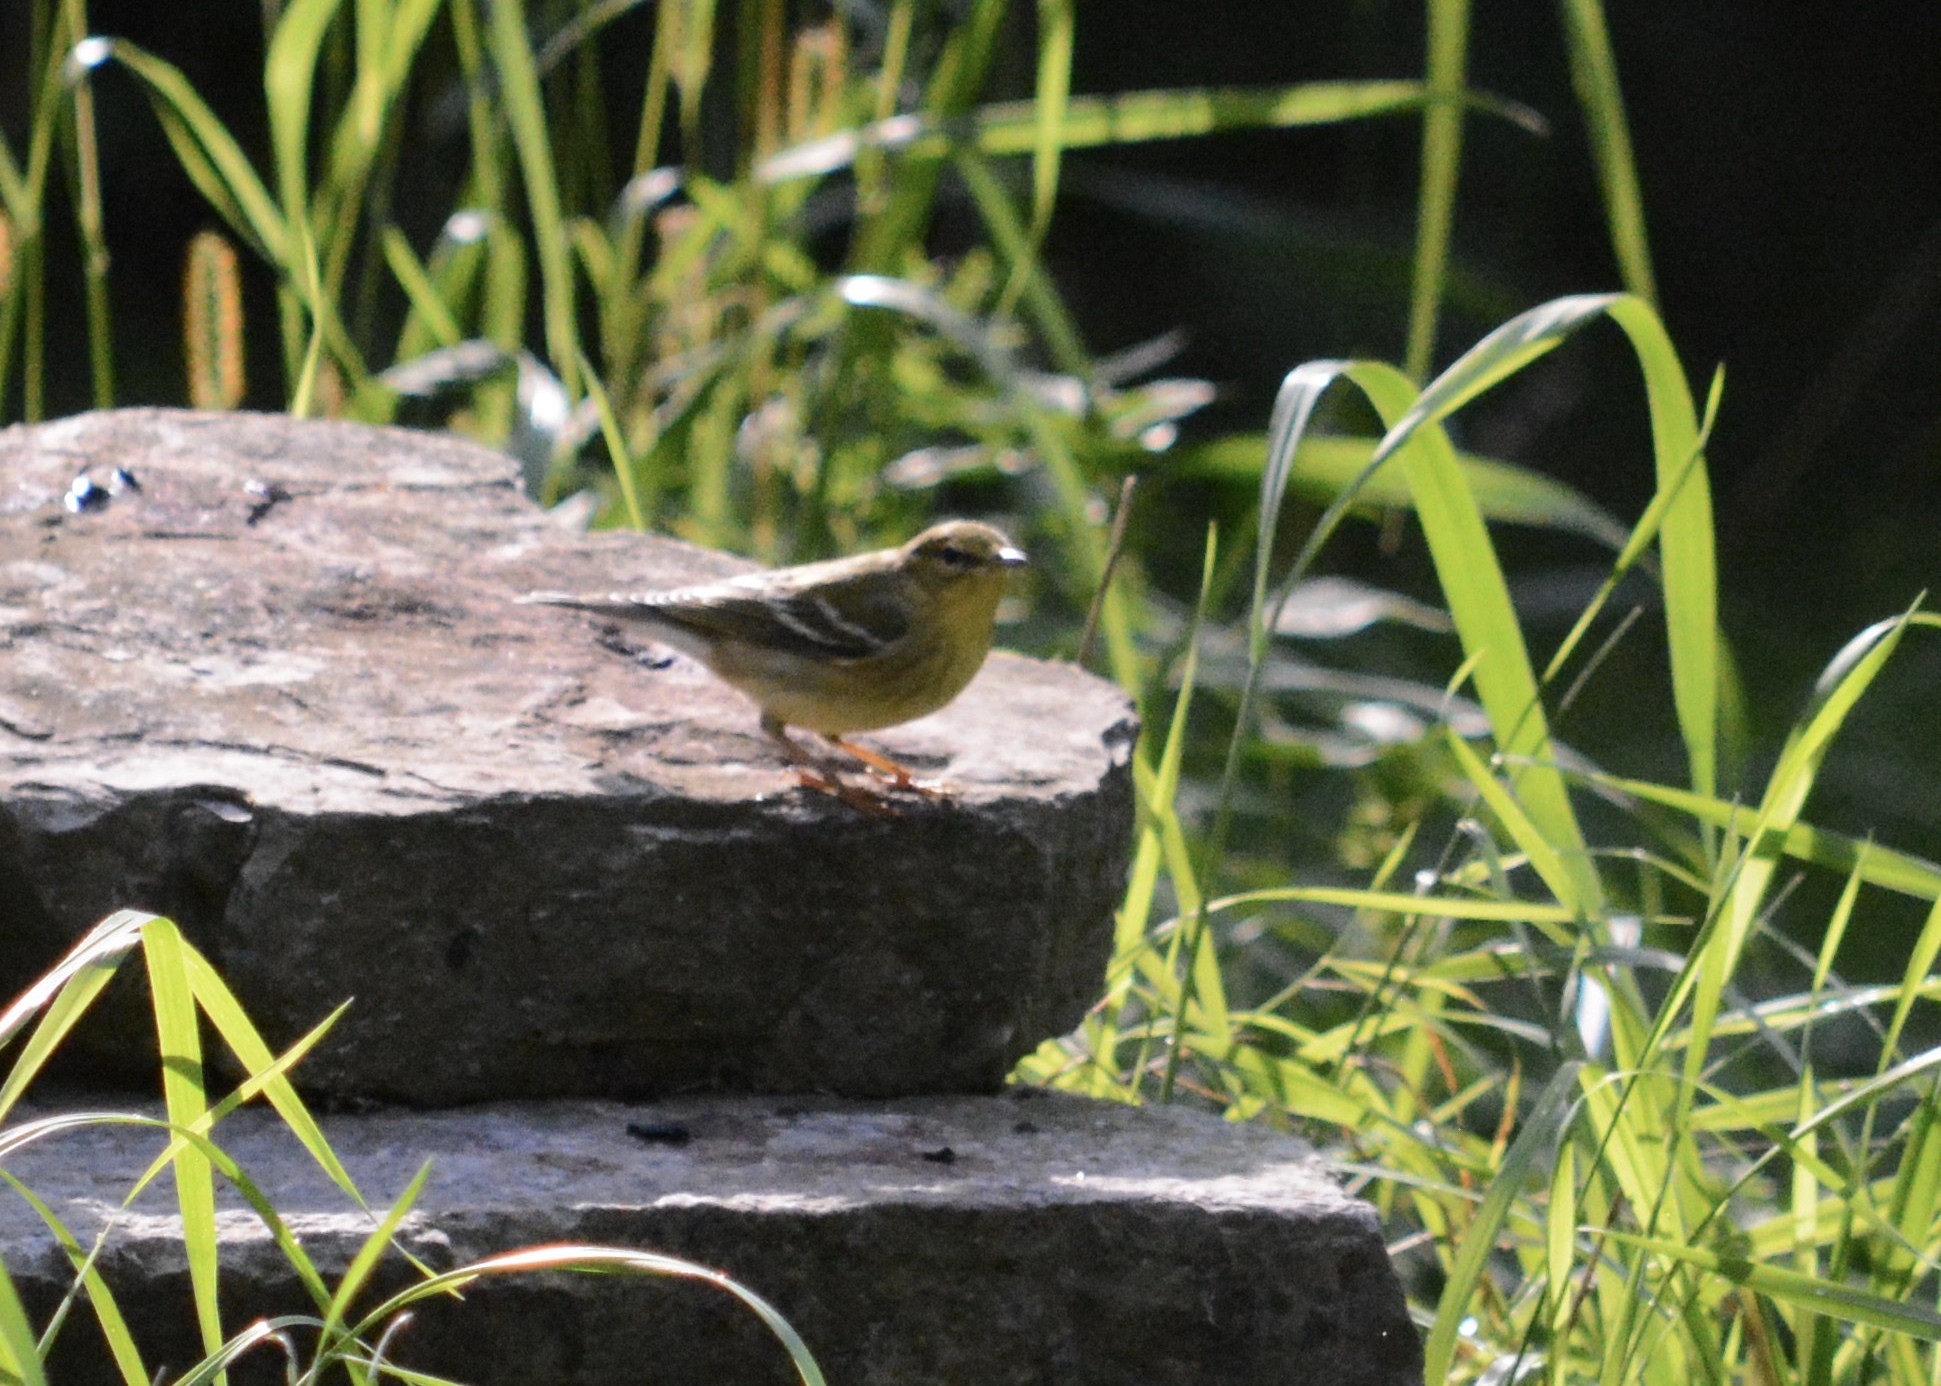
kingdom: Animalia
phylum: Chordata
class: Aves
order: Passeriformes
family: Parulidae
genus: Setophaga
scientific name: Setophaga striata
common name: Blackpoll warbler
